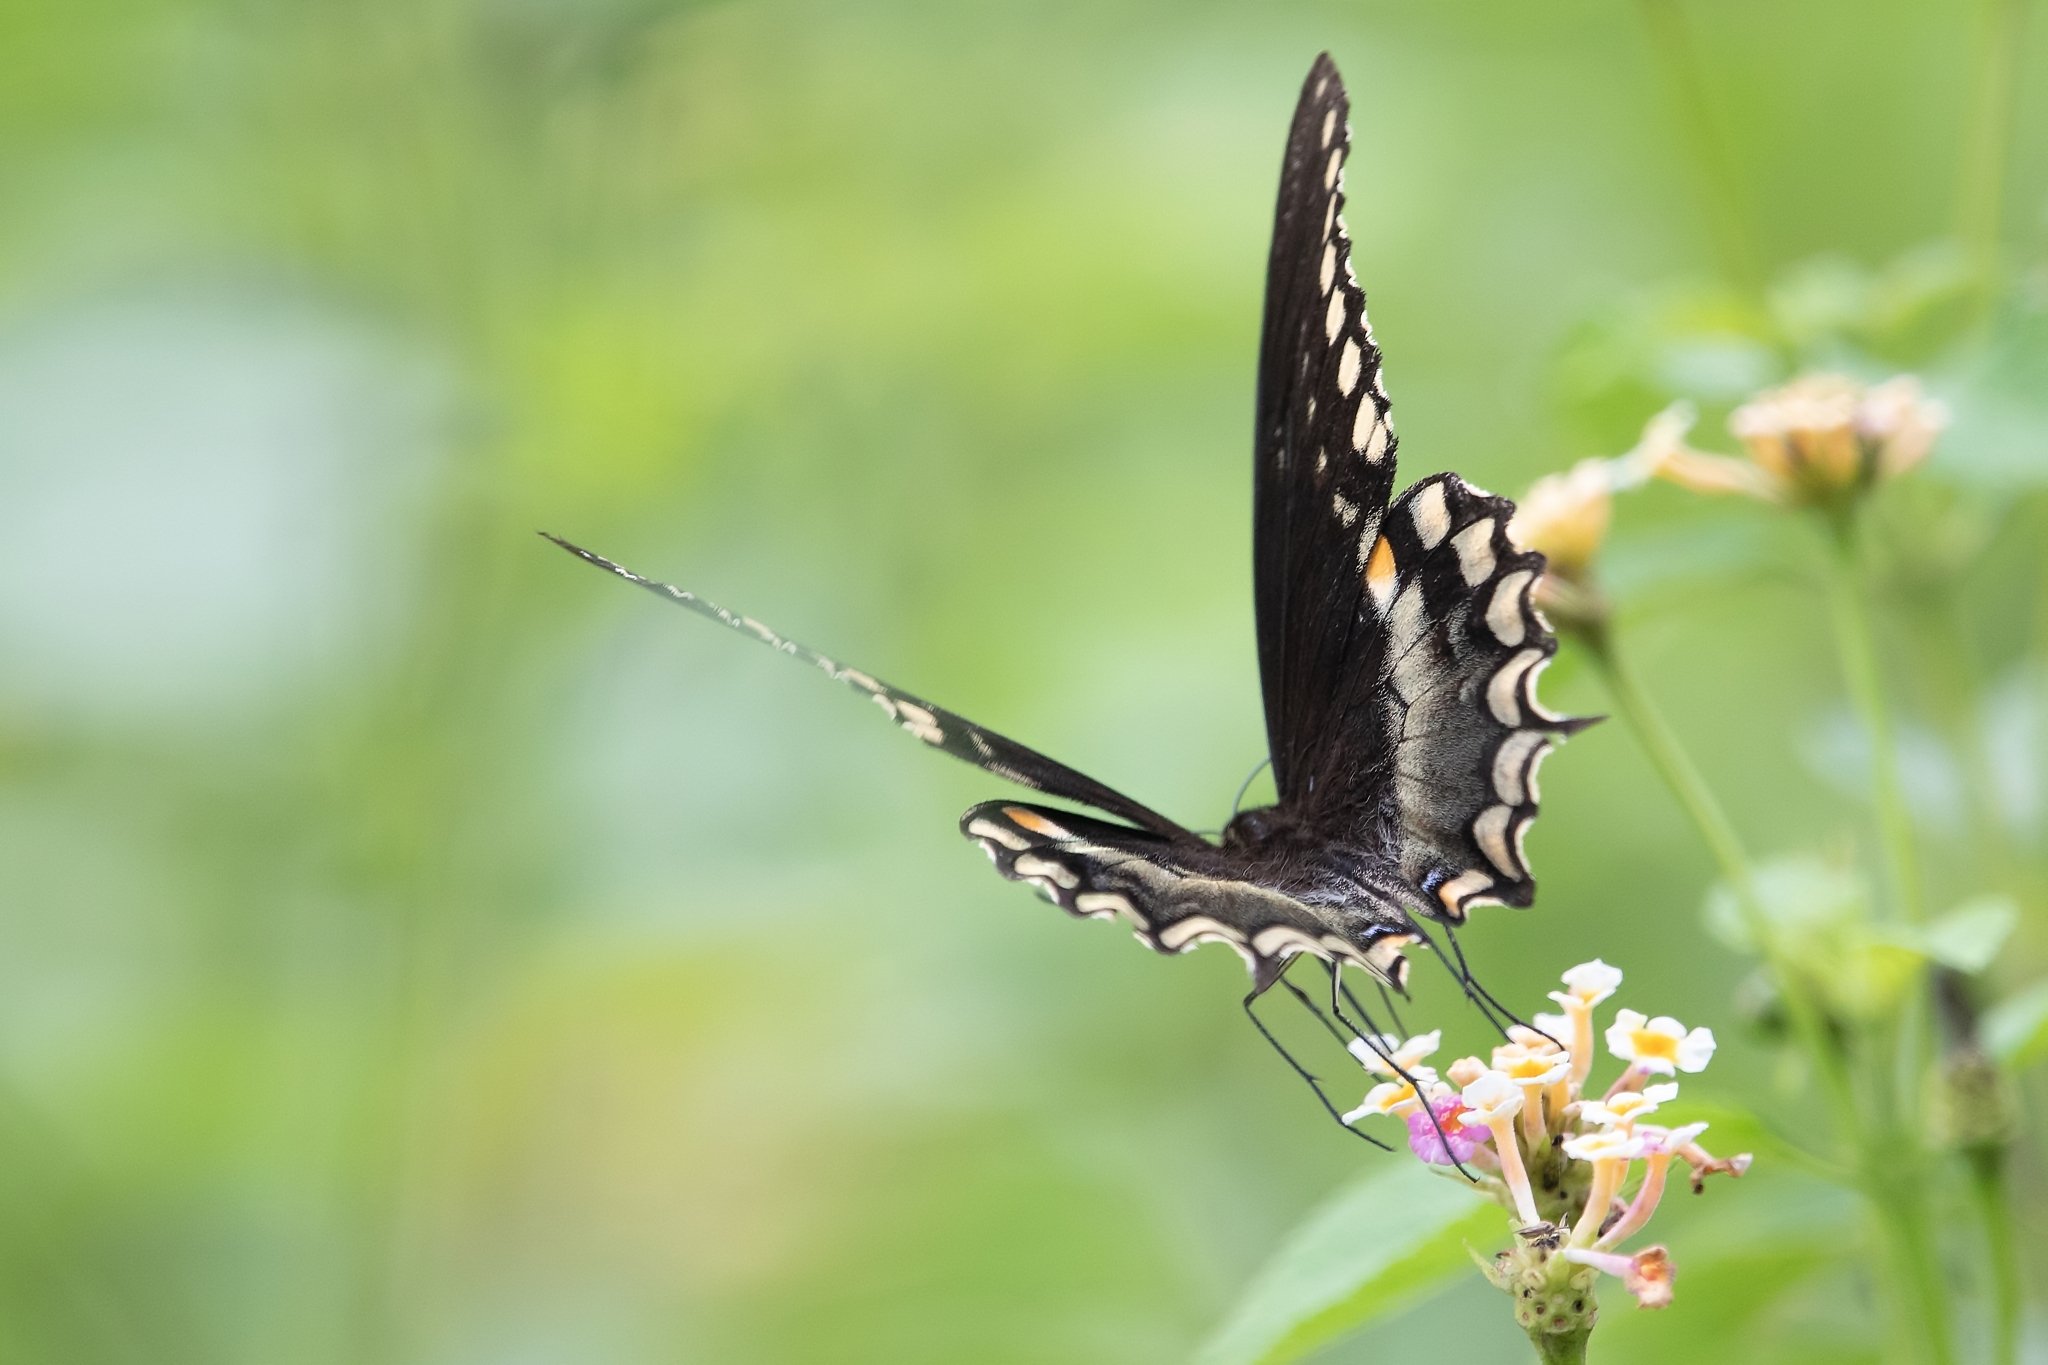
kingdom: Animalia
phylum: Arthropoda
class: Insecta
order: Lepidoptera
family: Papilionidae
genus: Papilio
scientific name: Papilio troilus
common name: Spicebush swallowtail
